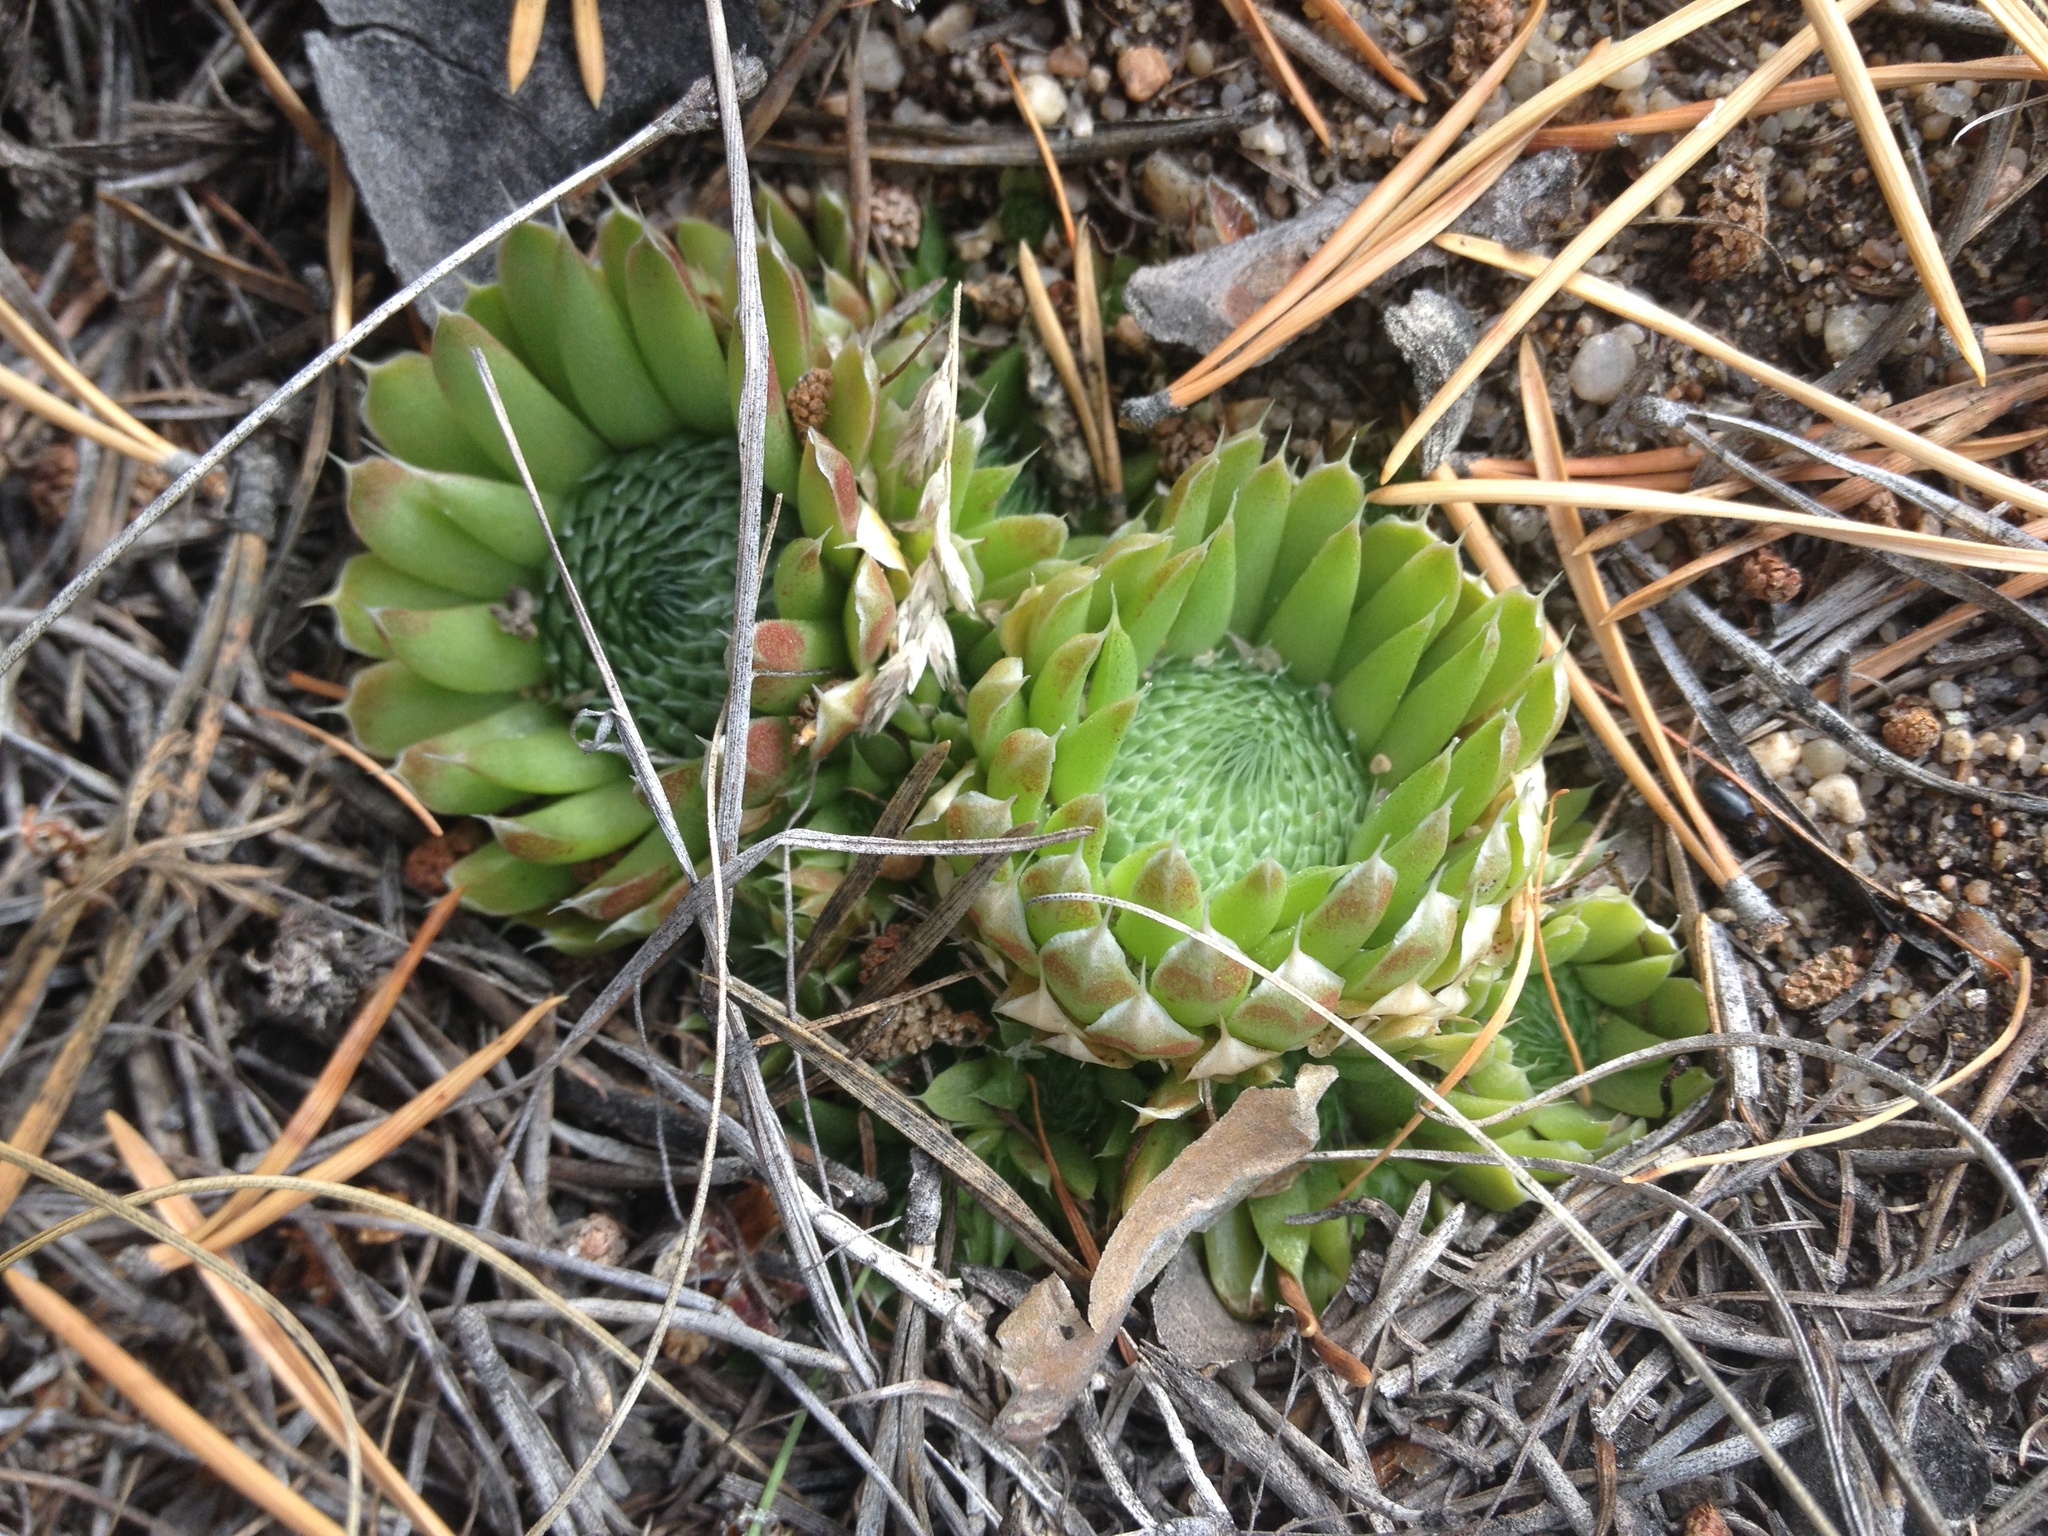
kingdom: Plantae
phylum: Tracheophyta
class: Magnoliopsida
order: Saxifragales
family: Crassulaceae
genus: Orostachys
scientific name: Orostachys spinosa
